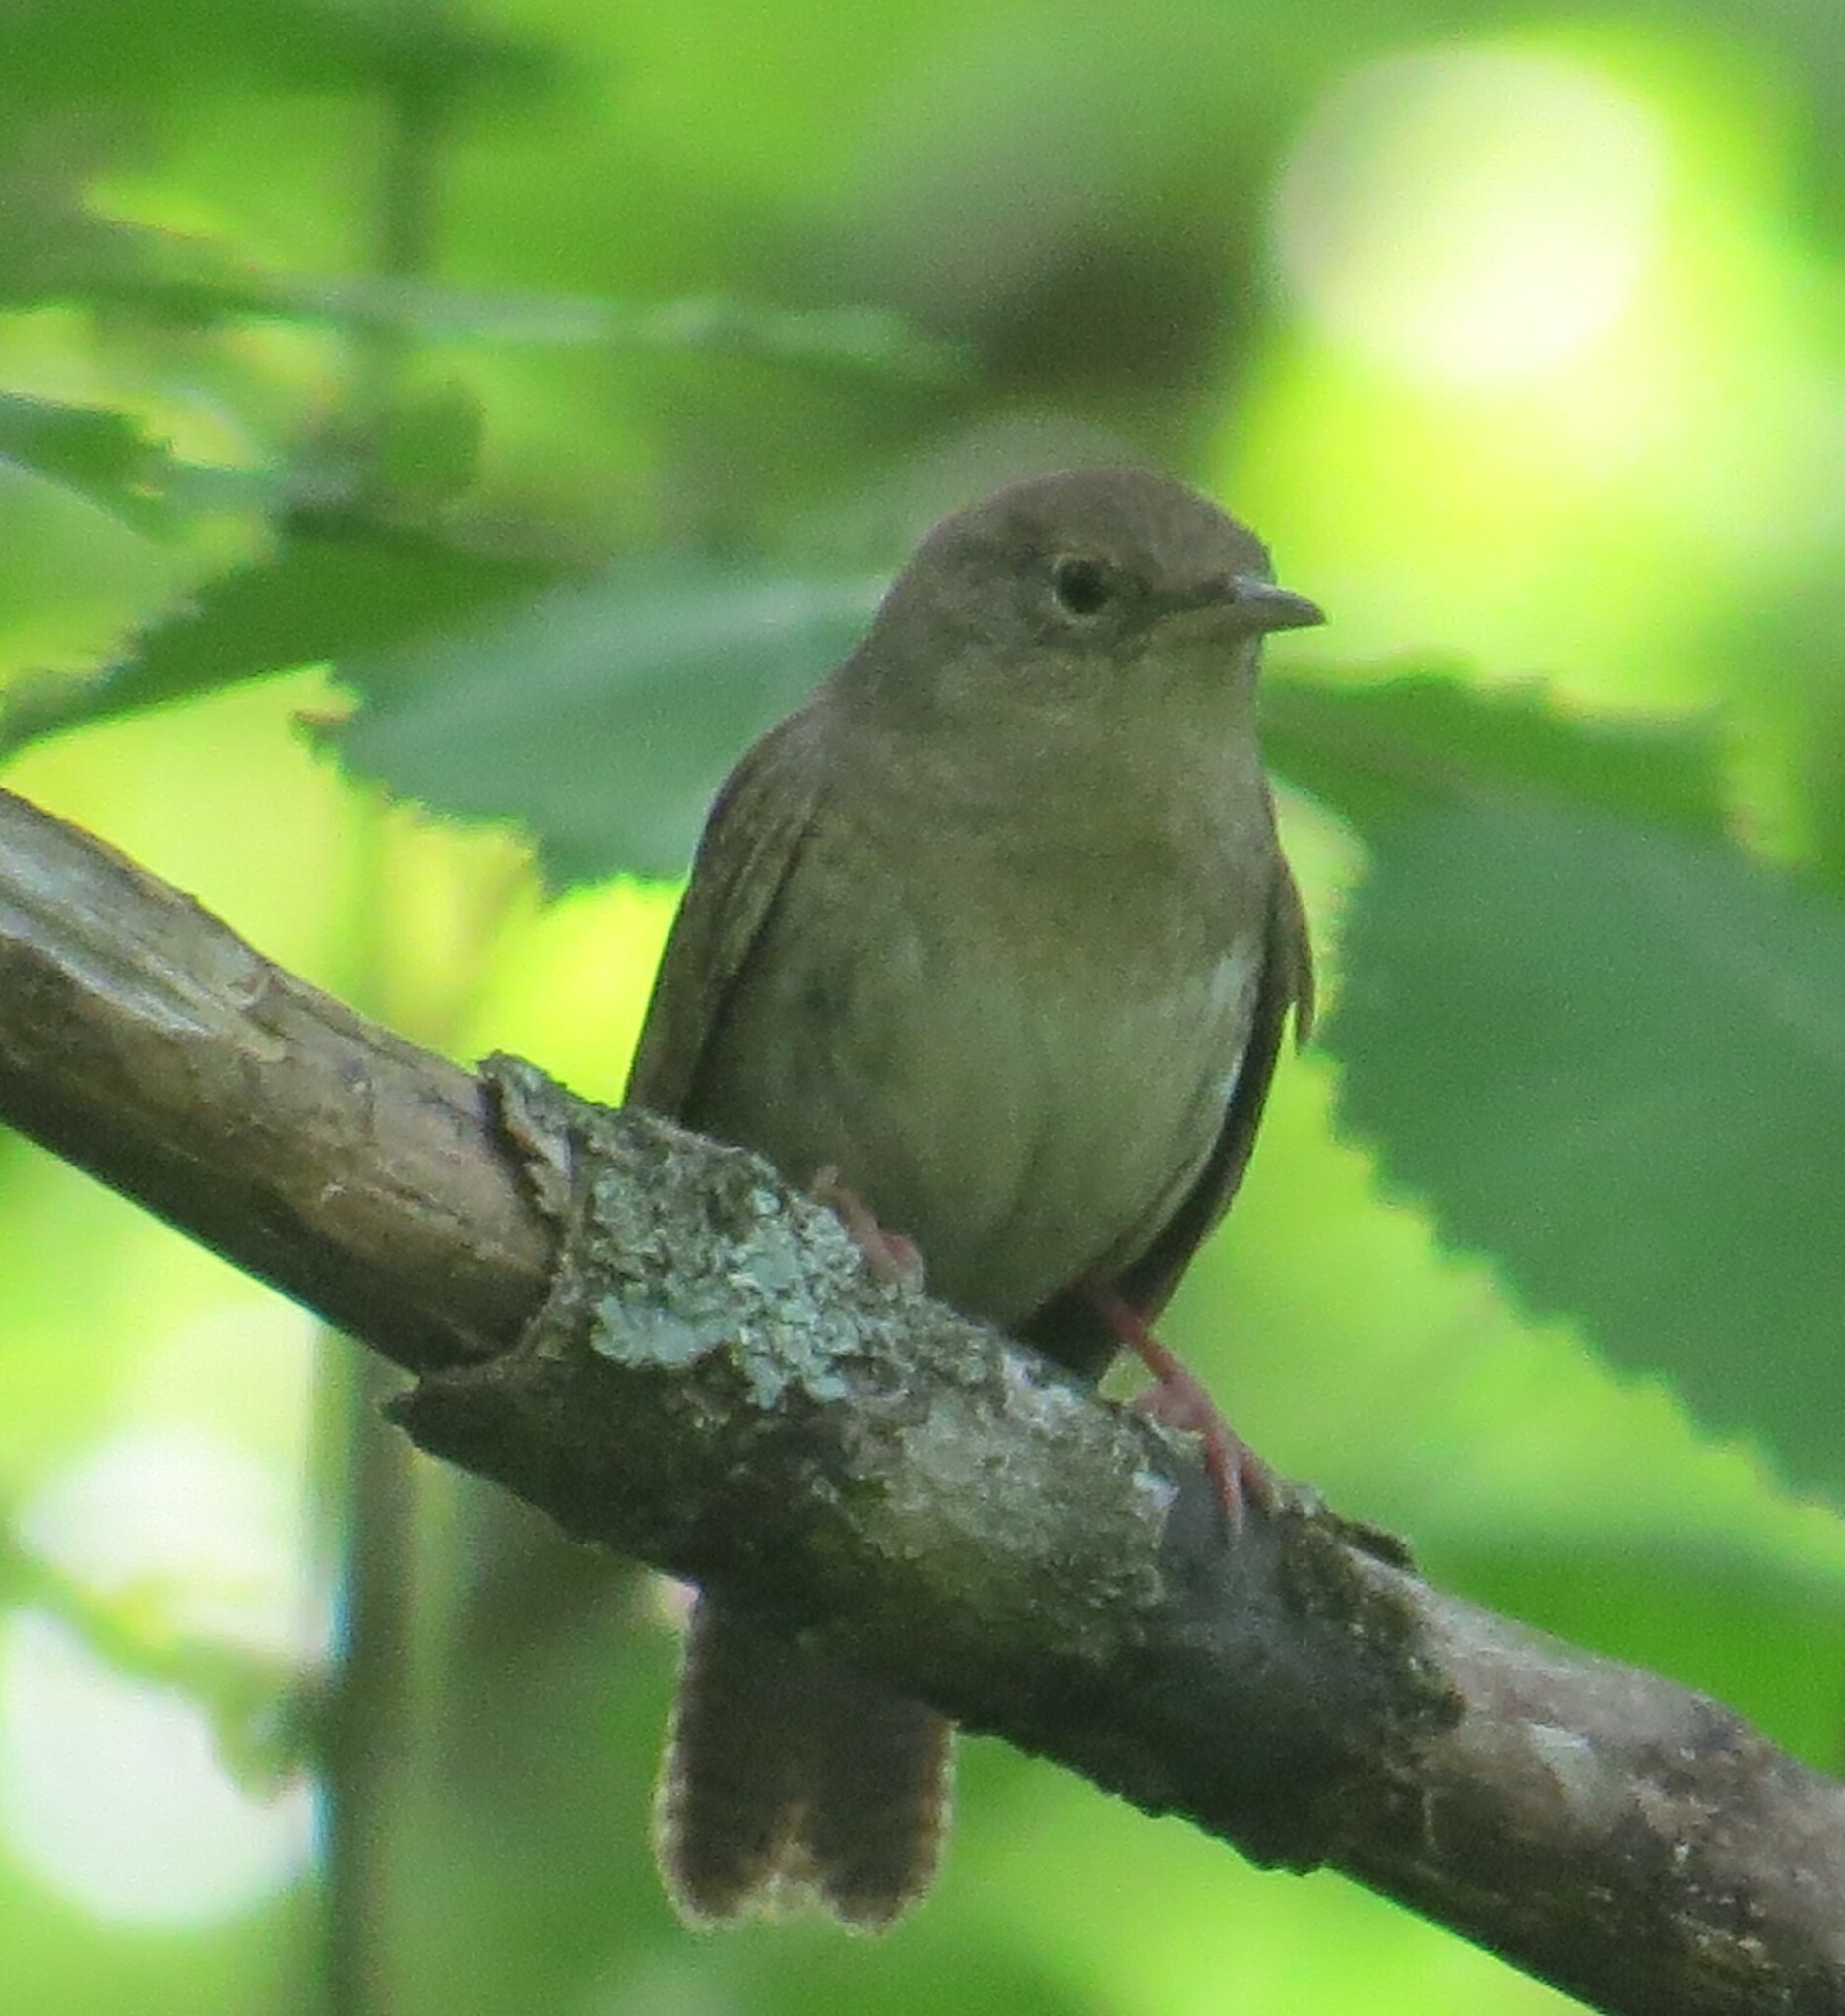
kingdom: Animalia
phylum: Chordata
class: Aves
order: Passeriformes
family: Troglodytidae
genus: Troglodytes
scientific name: Troglodytes aedon
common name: House wren
